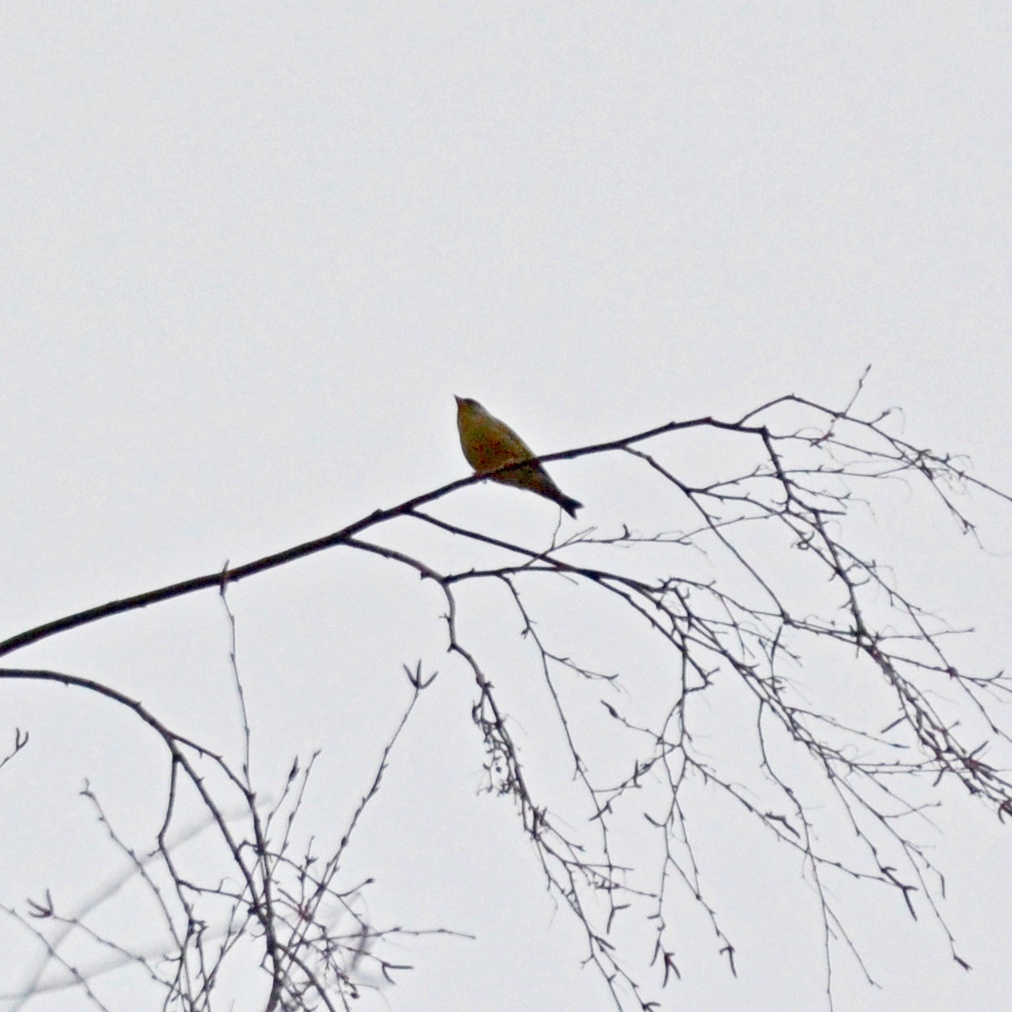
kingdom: Plantae
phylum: Tracheophyta
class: Liliopsida
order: Poales
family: Poaceae
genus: Chloris
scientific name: Chloris chloris
